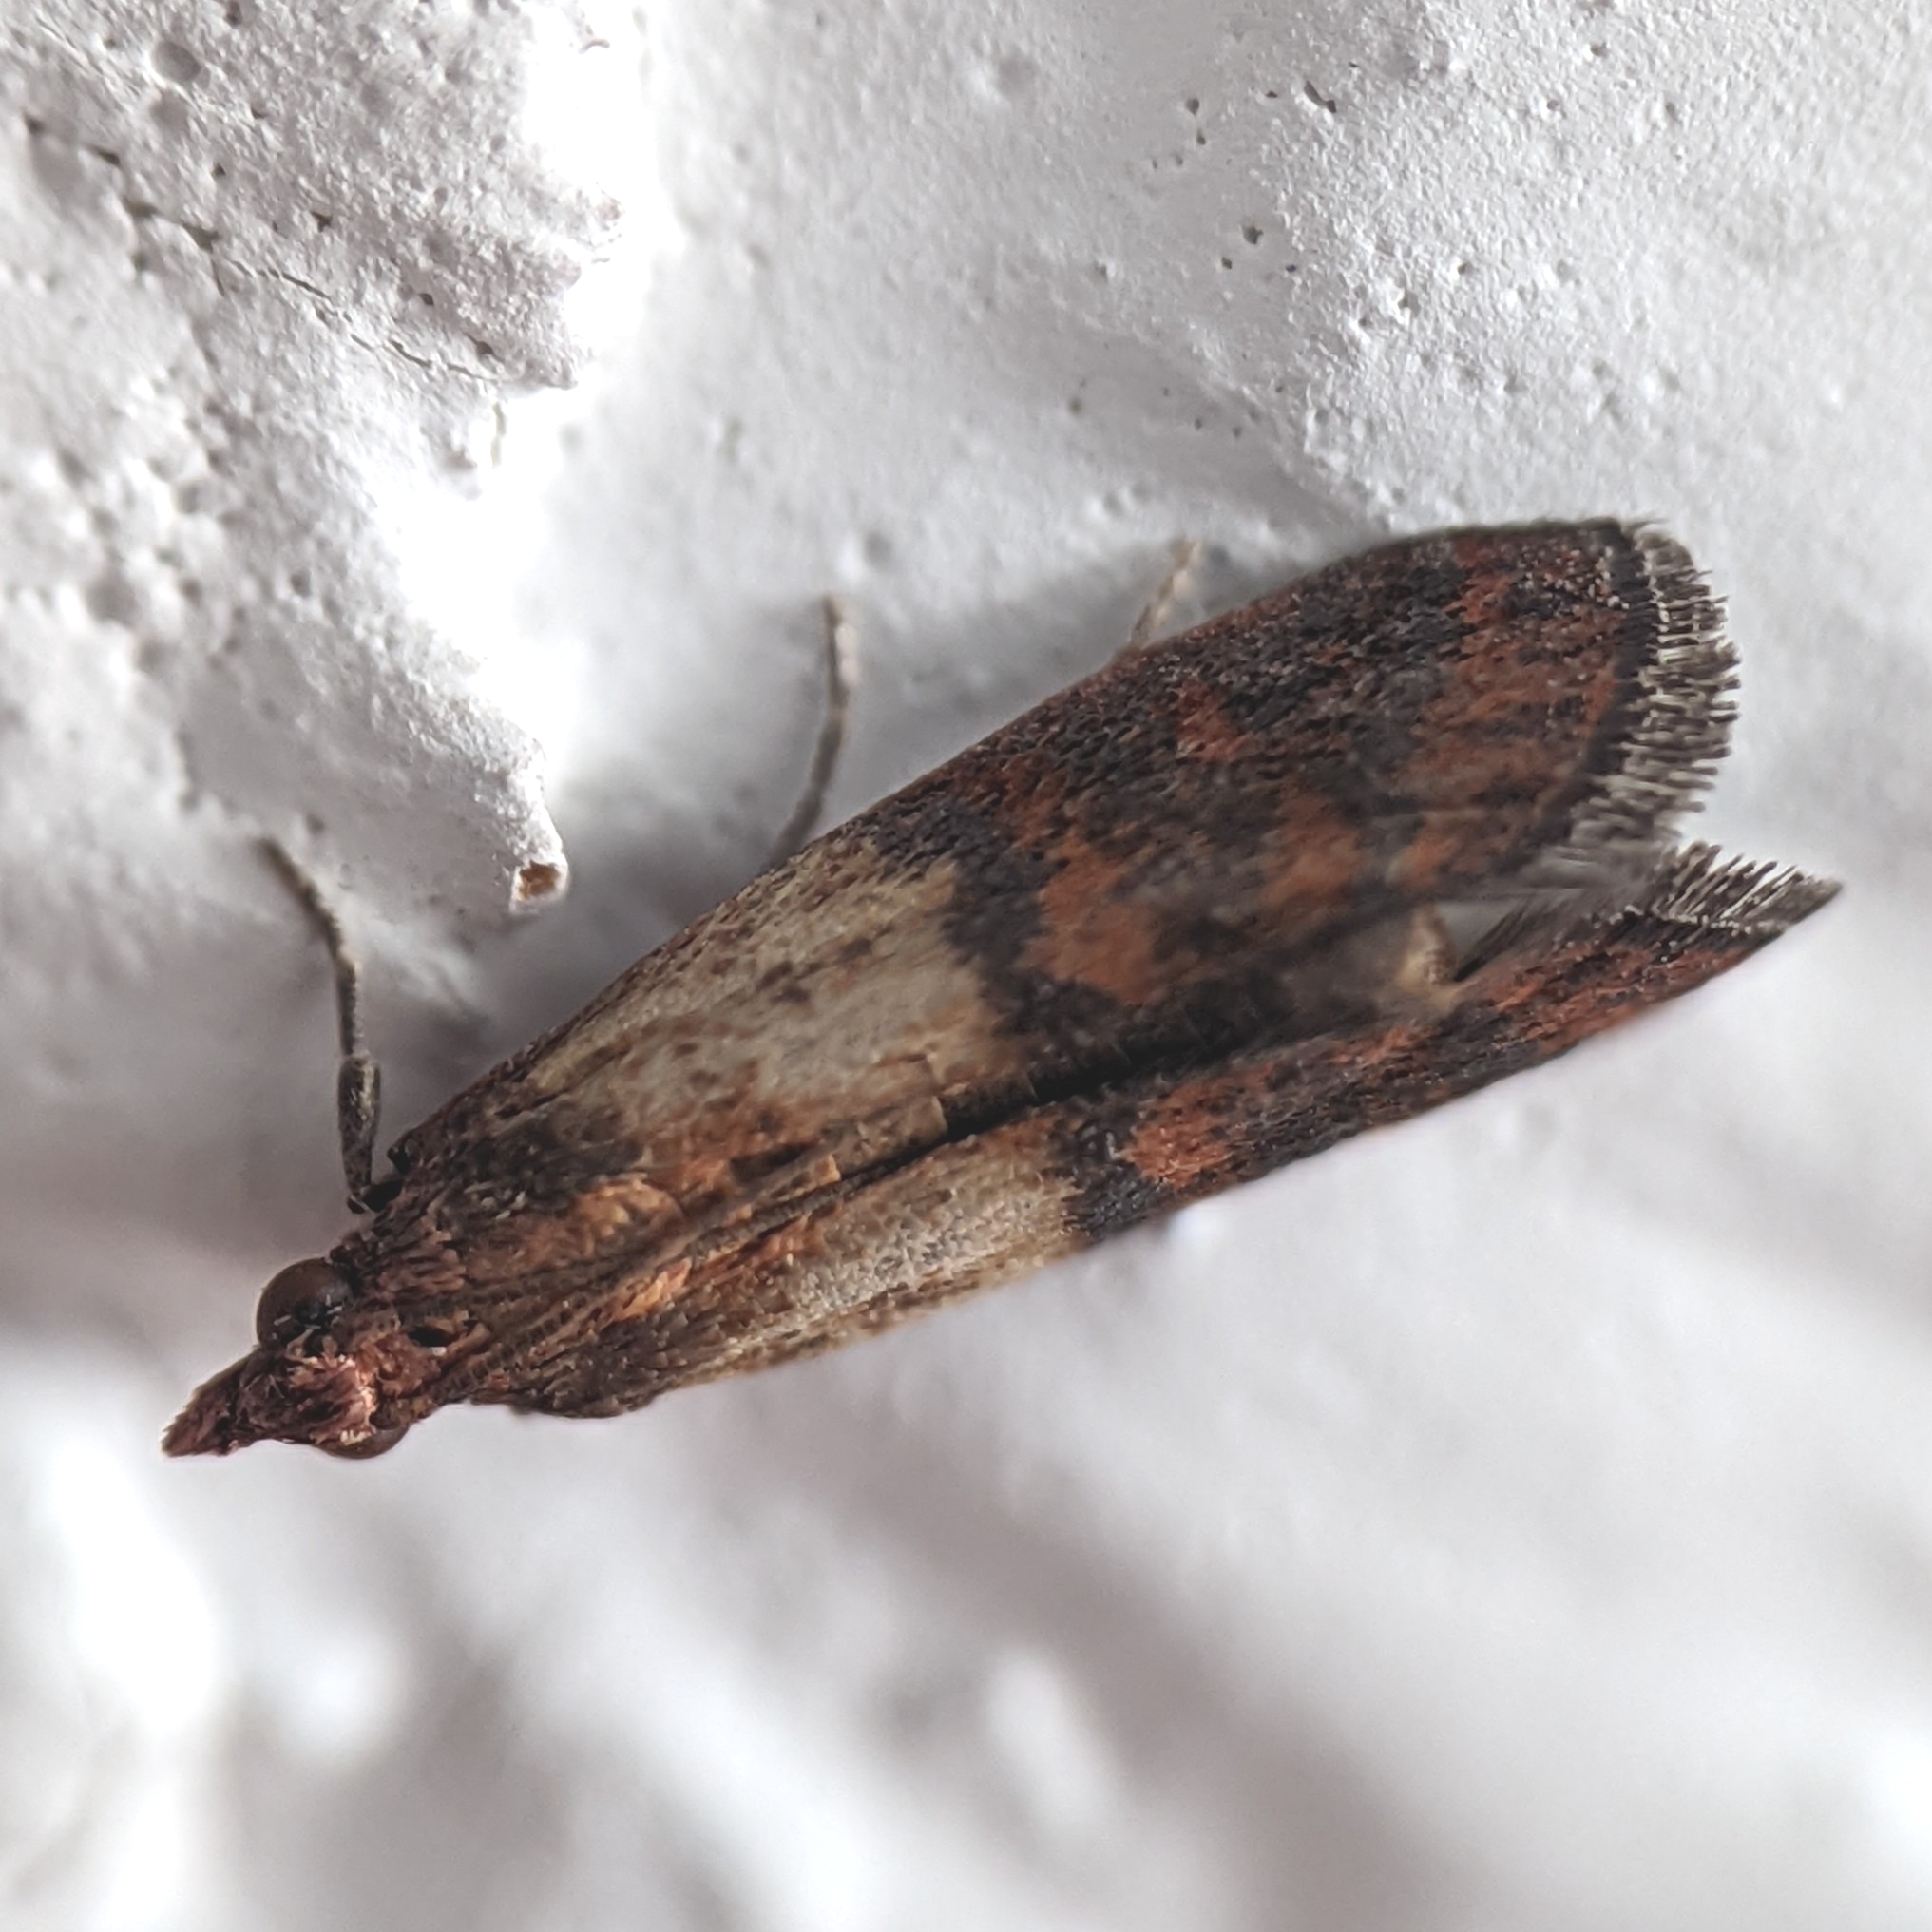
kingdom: Animalia
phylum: Arthropoda
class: Insecta
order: Lepidoptera
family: Pyralidae
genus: Plodia
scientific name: Plodia interpunctella
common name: Indian meal moth
